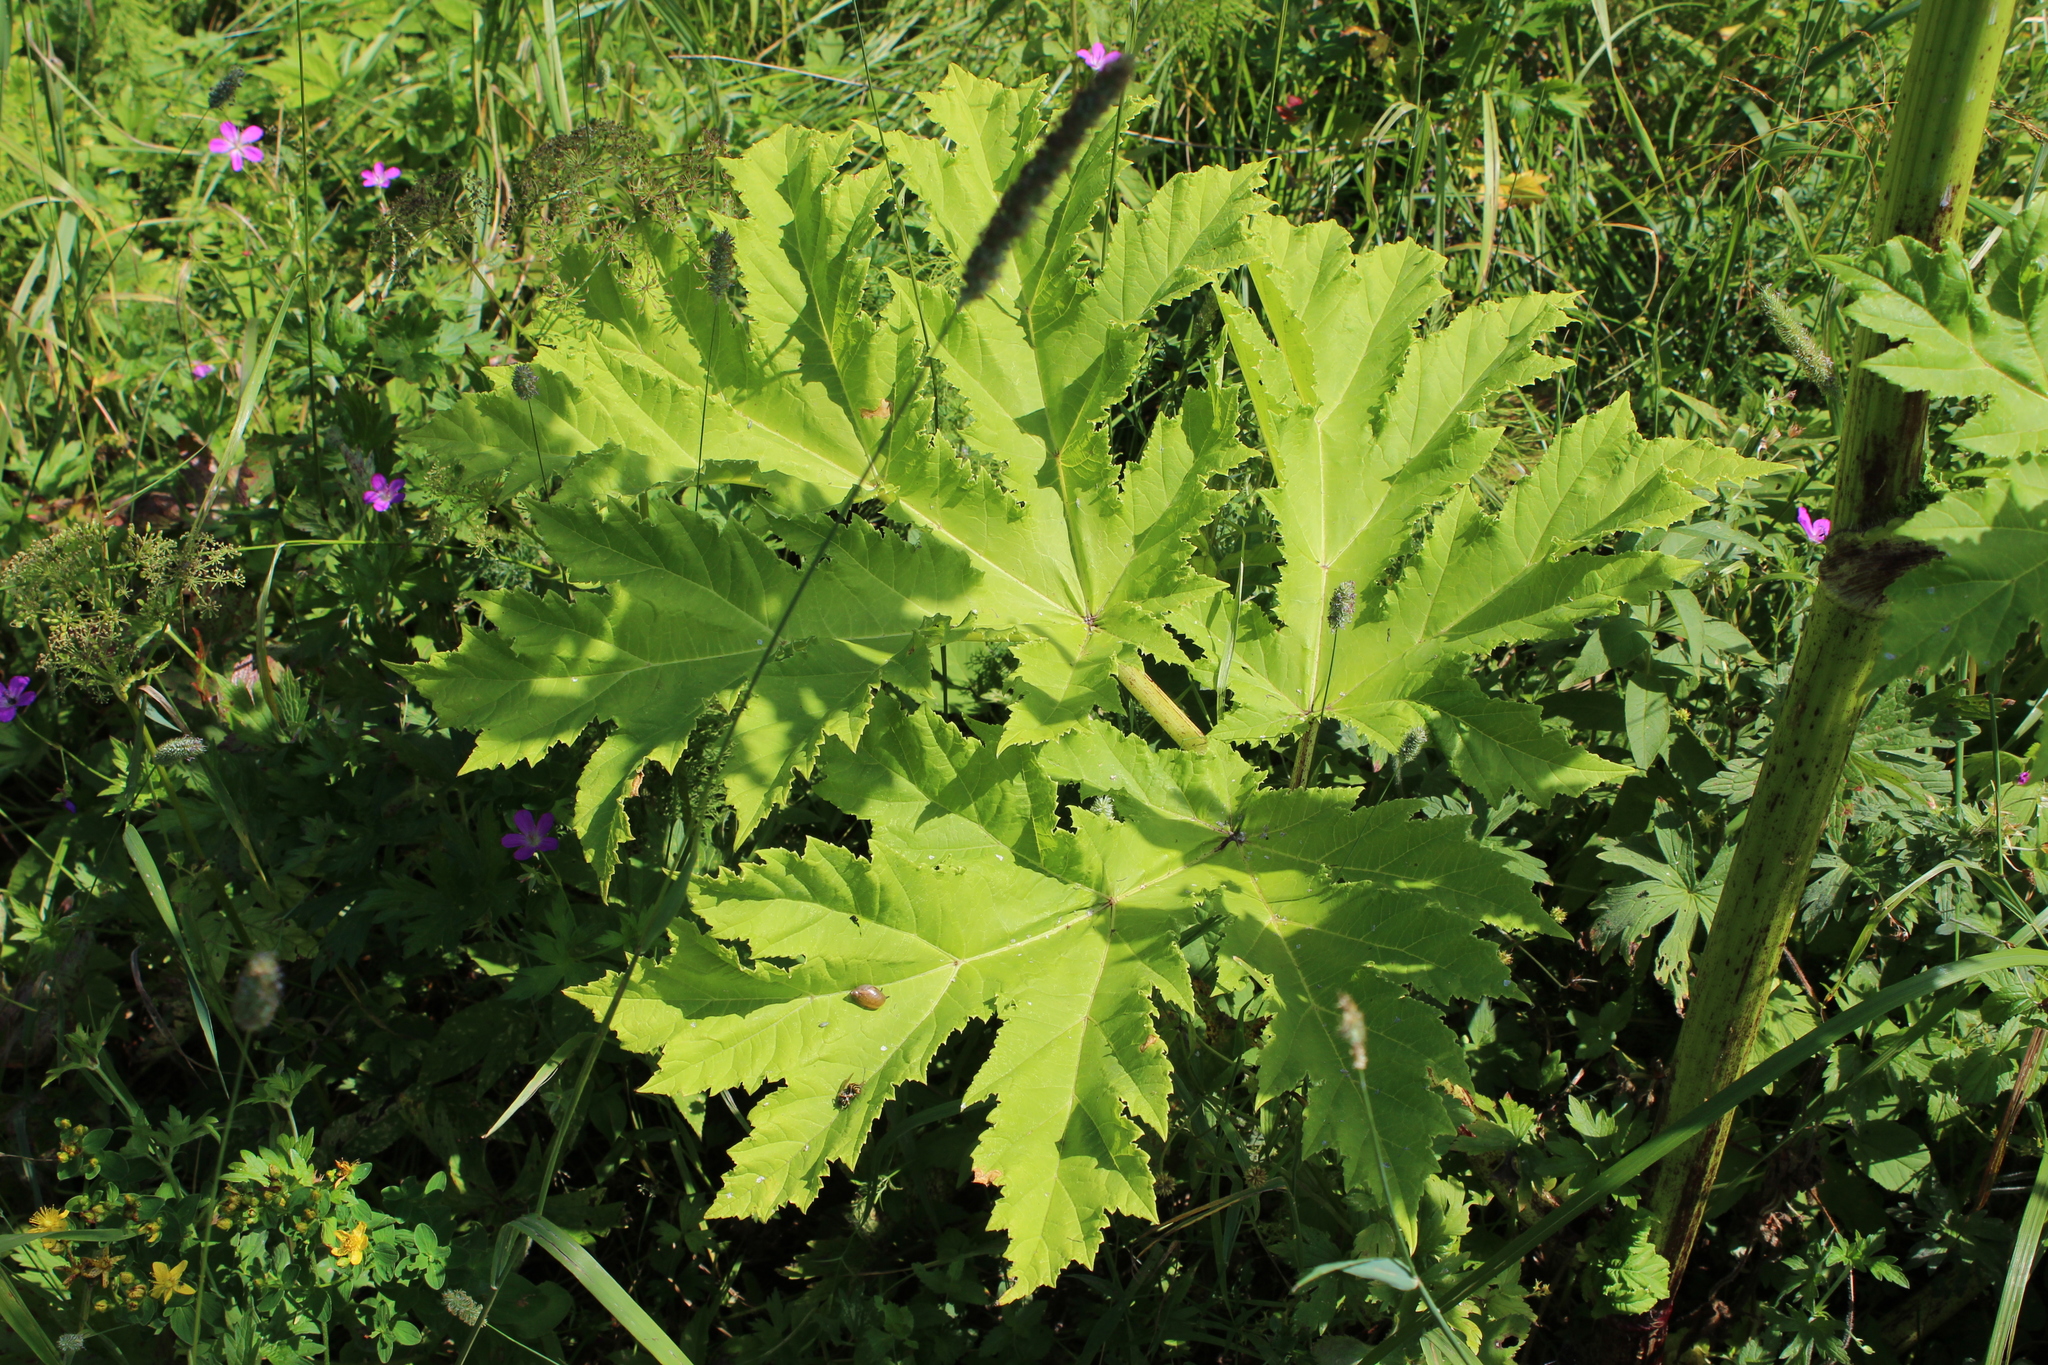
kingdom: Plantae
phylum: Tracheophyta
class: Magnoliopsida
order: Apiales
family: Apiaceae
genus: Heracleum
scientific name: Heracleum sosnowskyi
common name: Sosnowsky's hogweed
